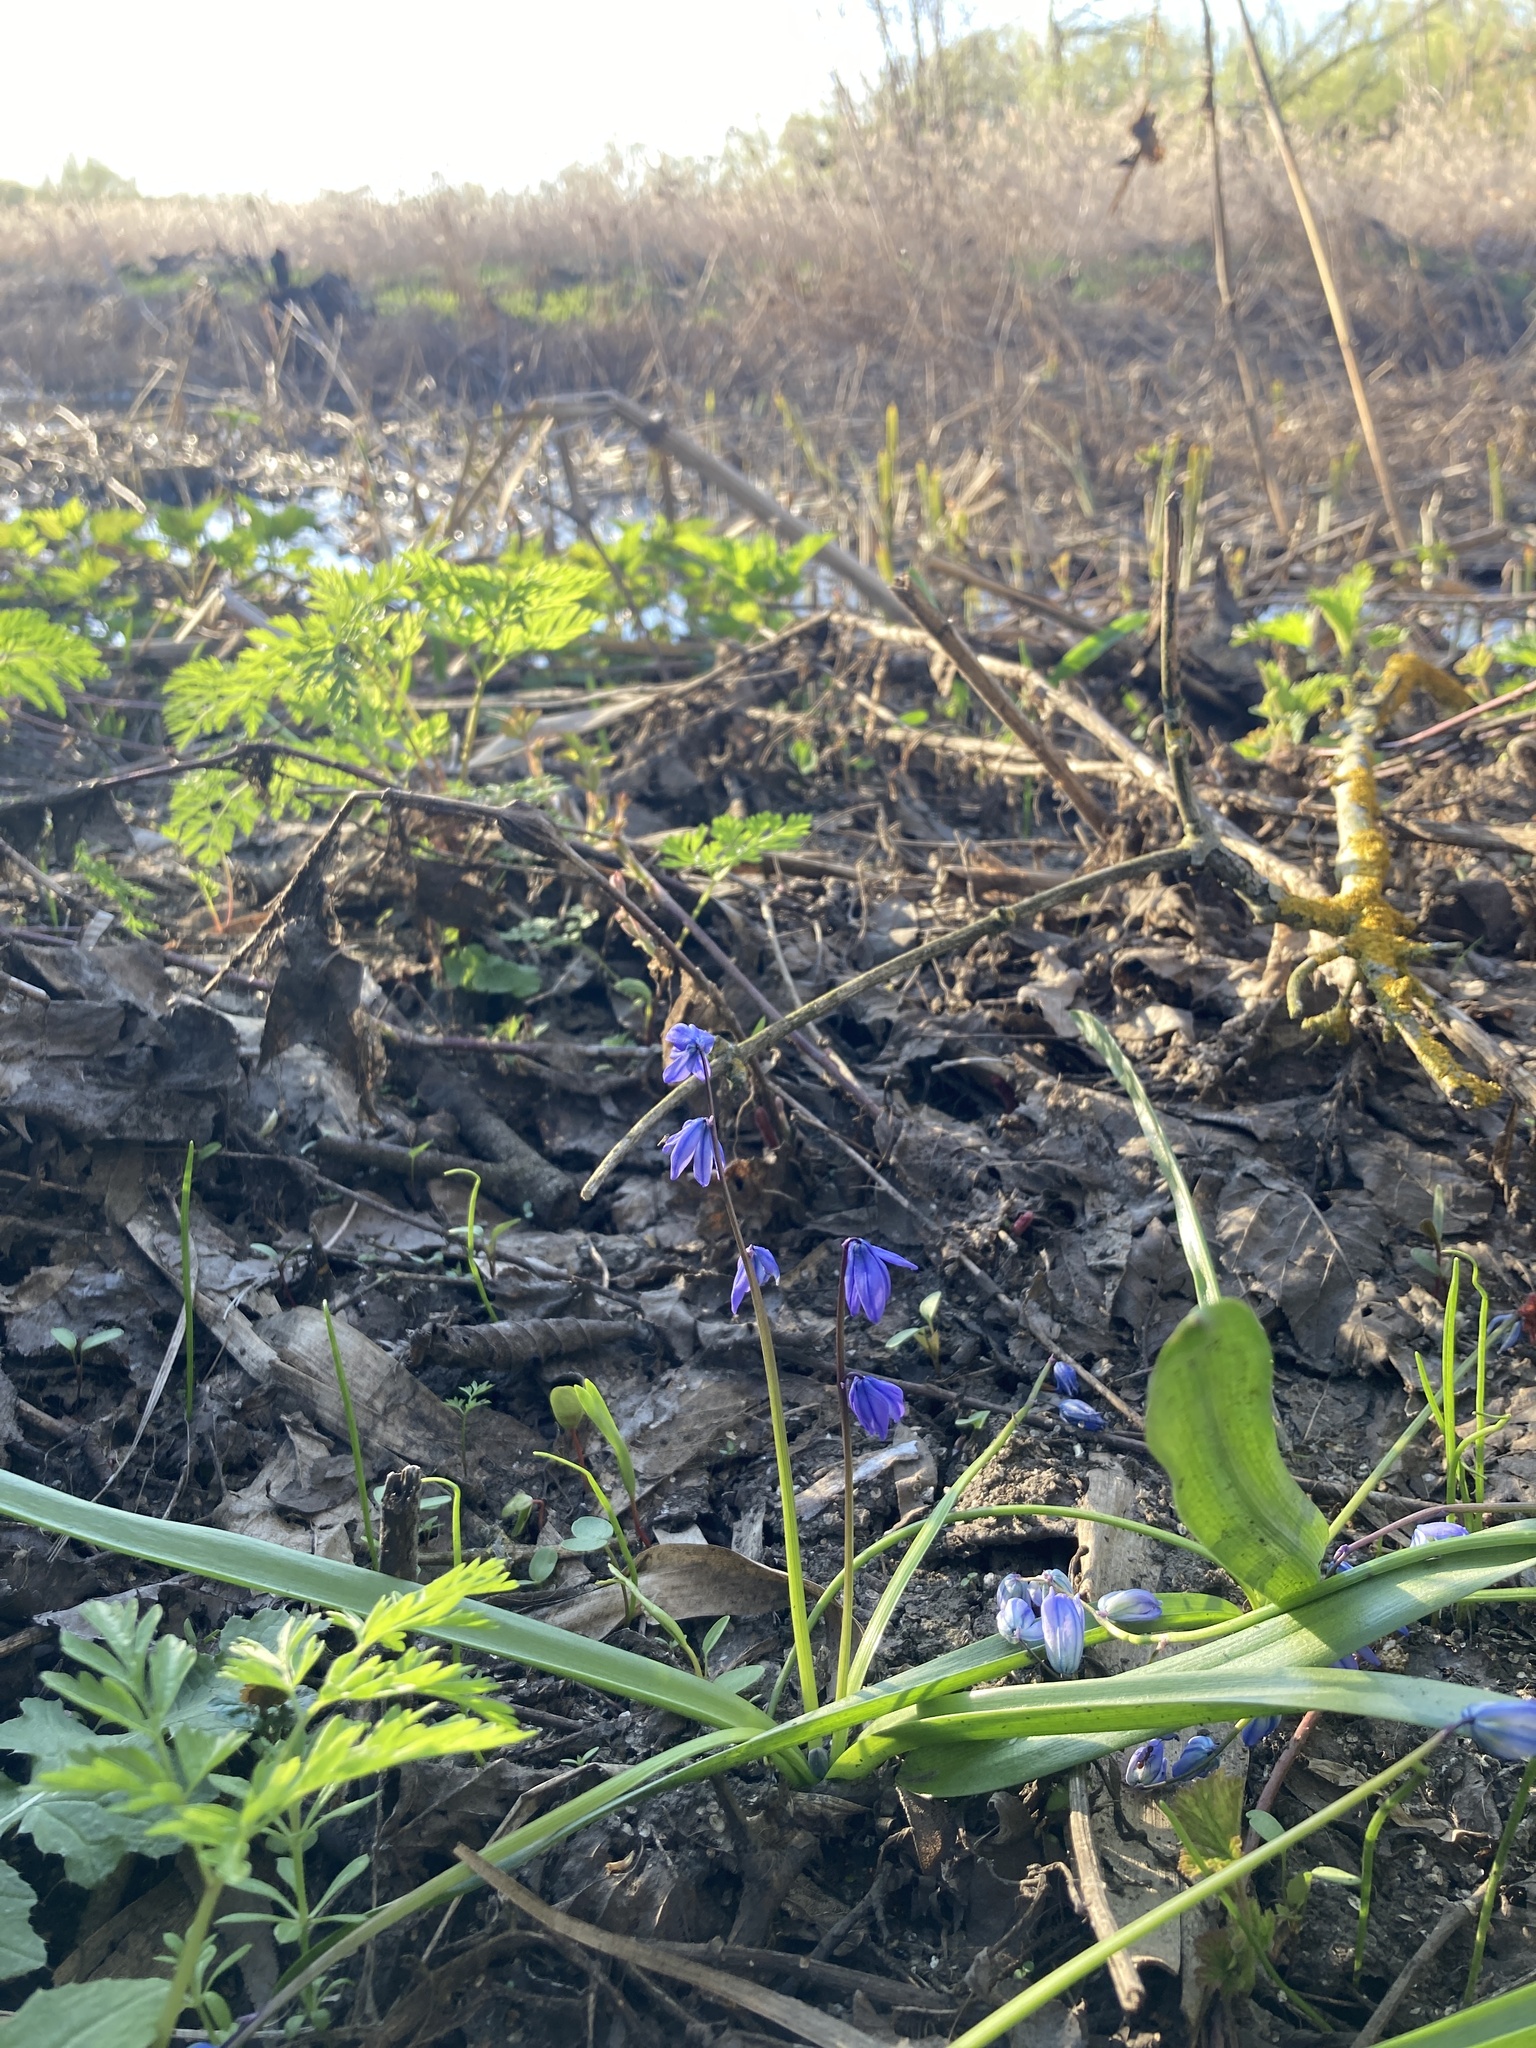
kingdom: Plantae
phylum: Tracheophyta
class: Liliopsida
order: Asparagales
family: Asparagaceae
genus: Scilla
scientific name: Scilla siberica
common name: Siberian squill
